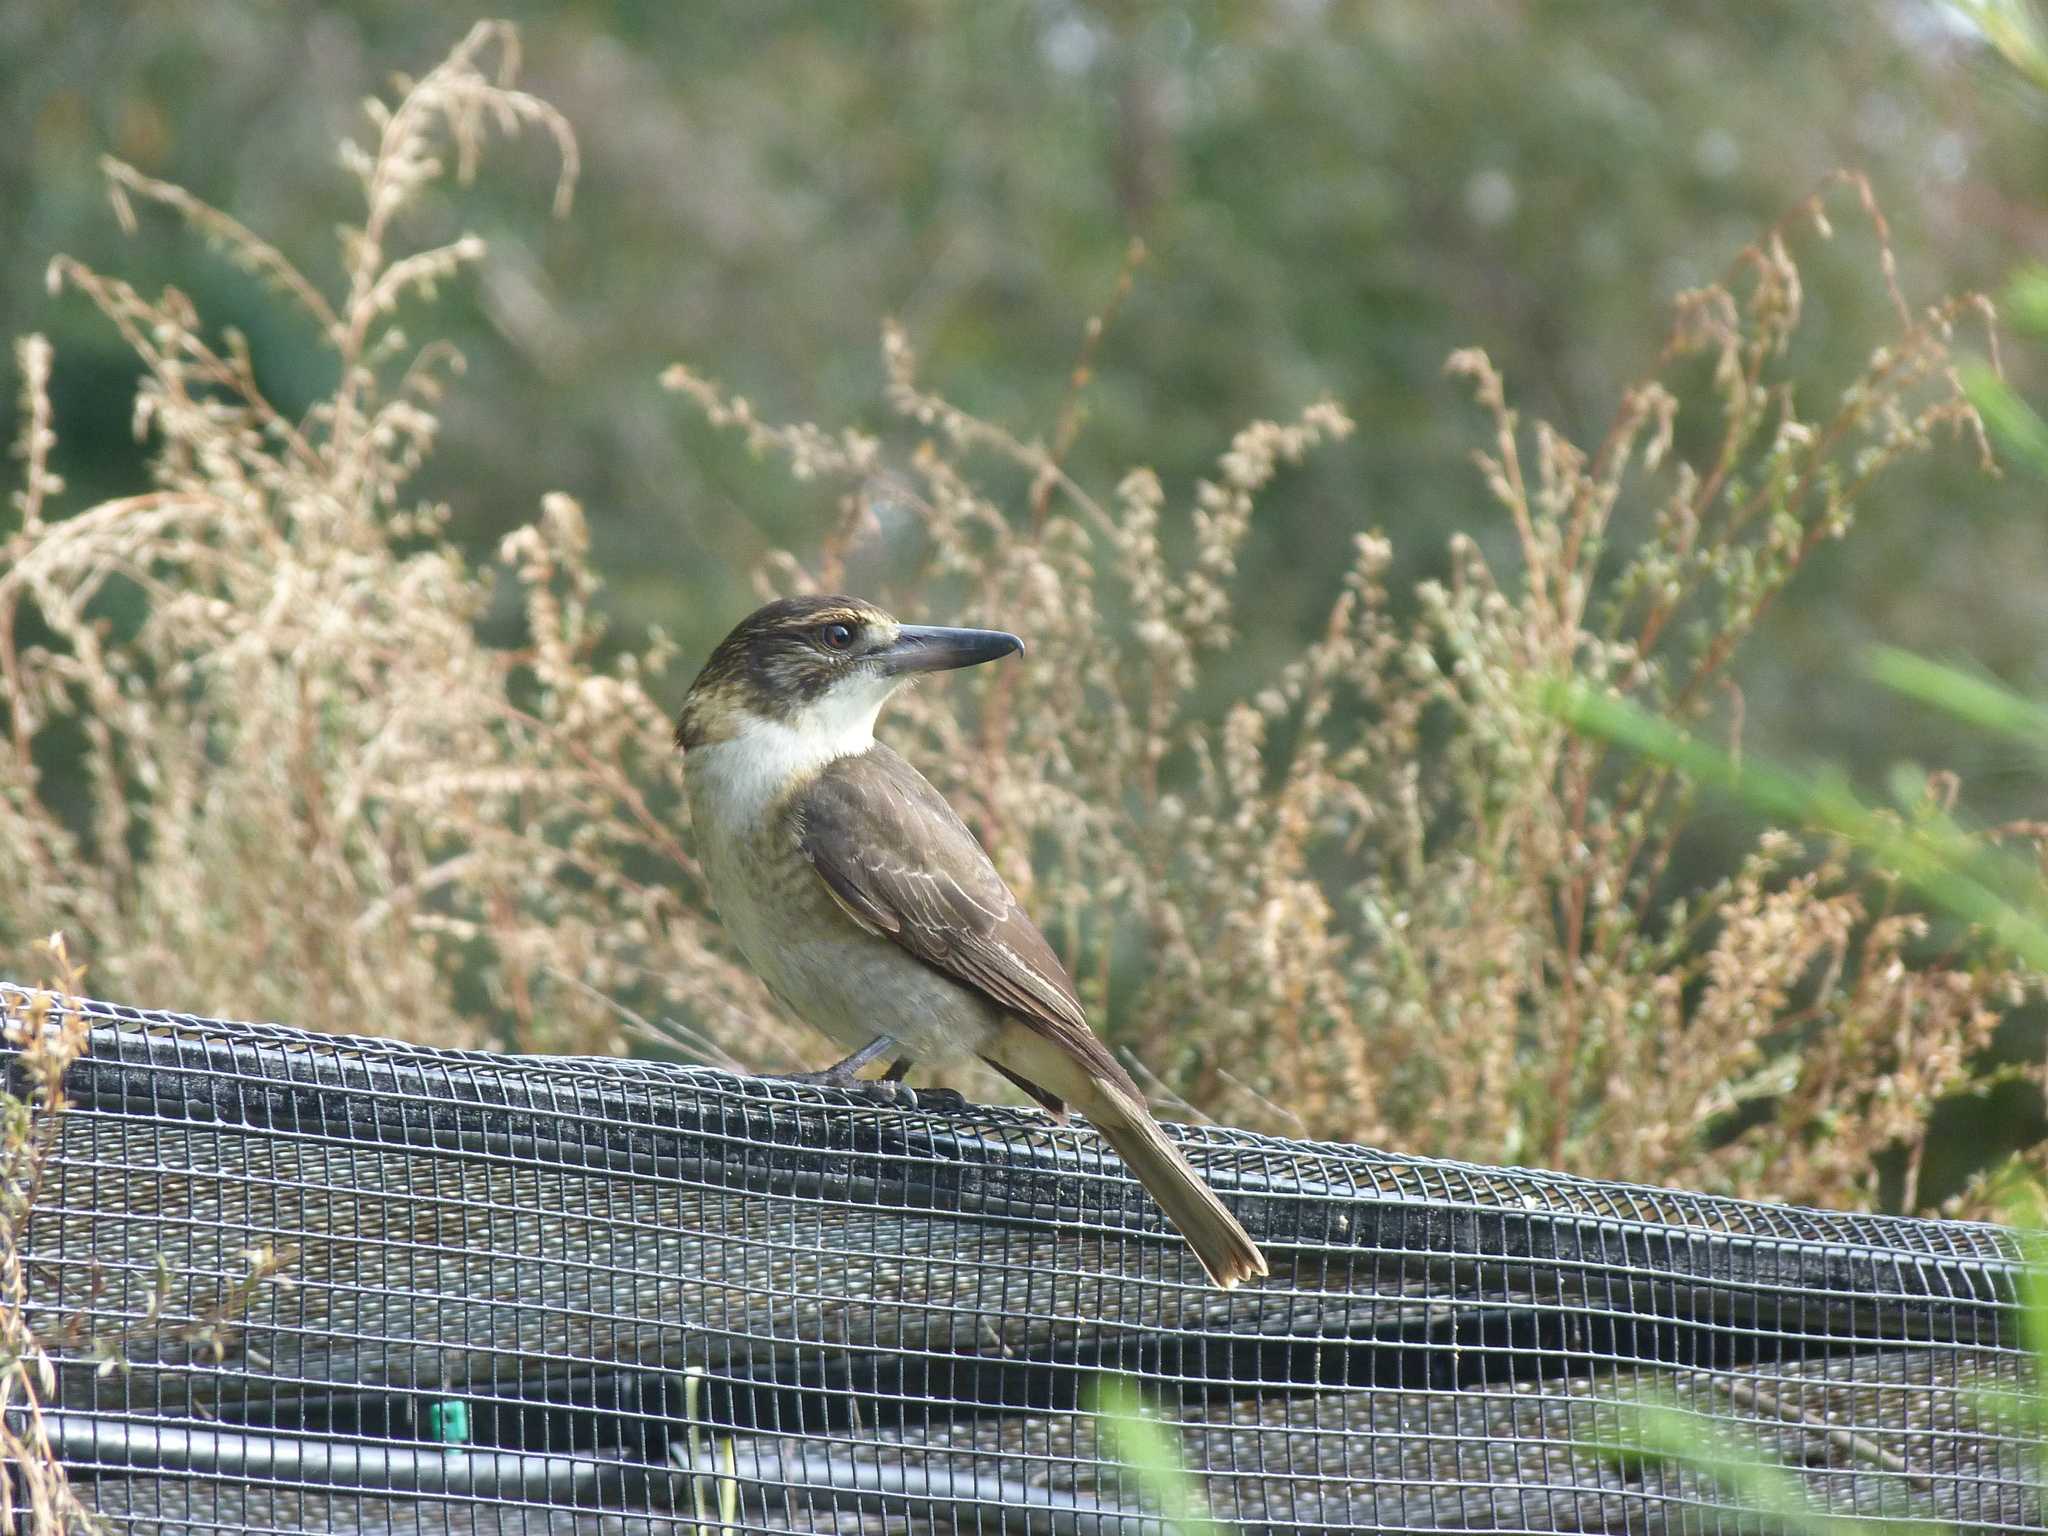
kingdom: Animalia
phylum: Chordata
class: Aves
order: Passeriformes
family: Cracticidae
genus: Cracticus
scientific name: Cracticus torquatus
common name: Grey butcherbird
